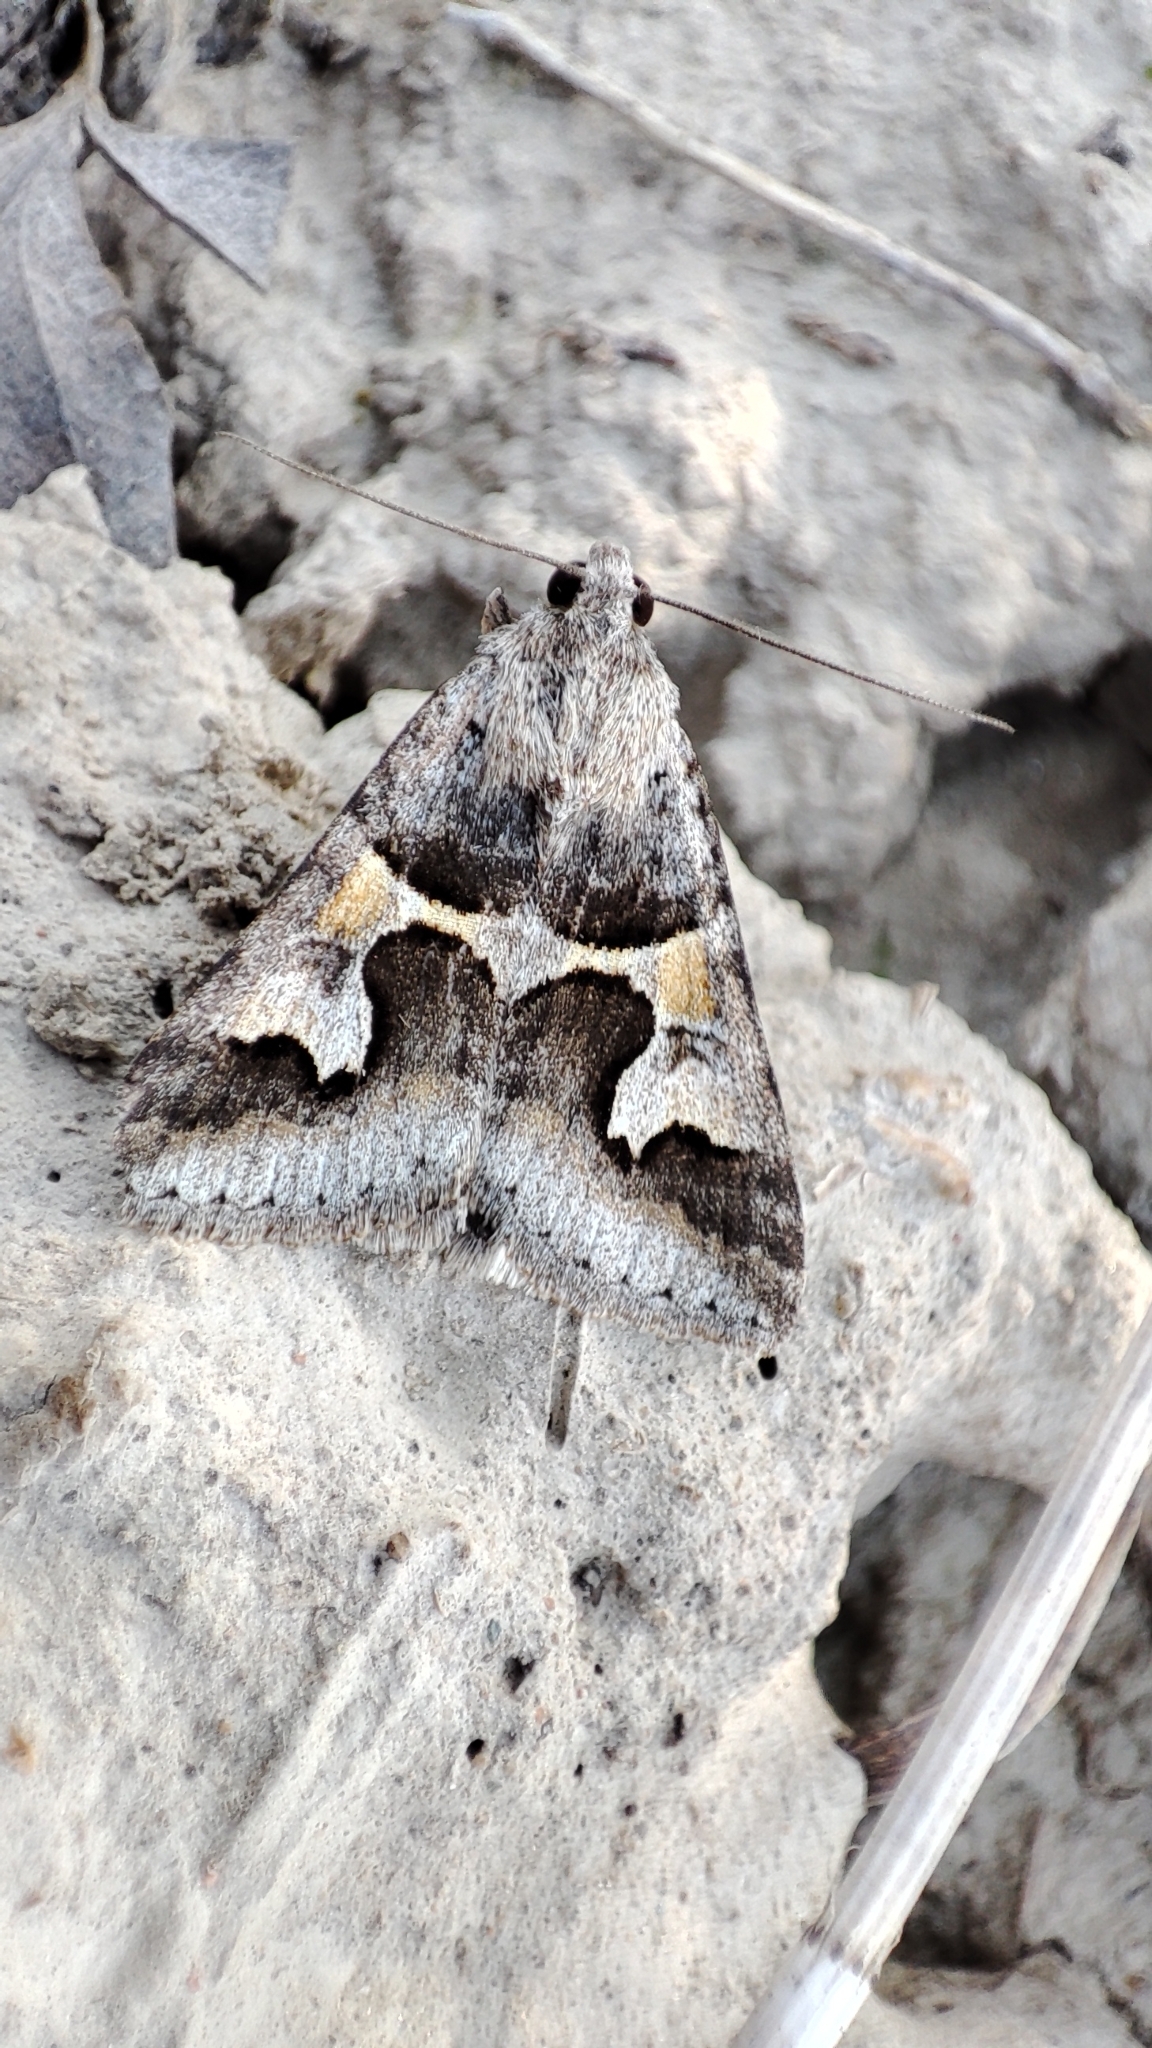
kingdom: Animalia
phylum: Arthropoda
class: Insecta
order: Lepidoptera
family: Erebidae
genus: Drasteria
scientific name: Drasteria caucasica
